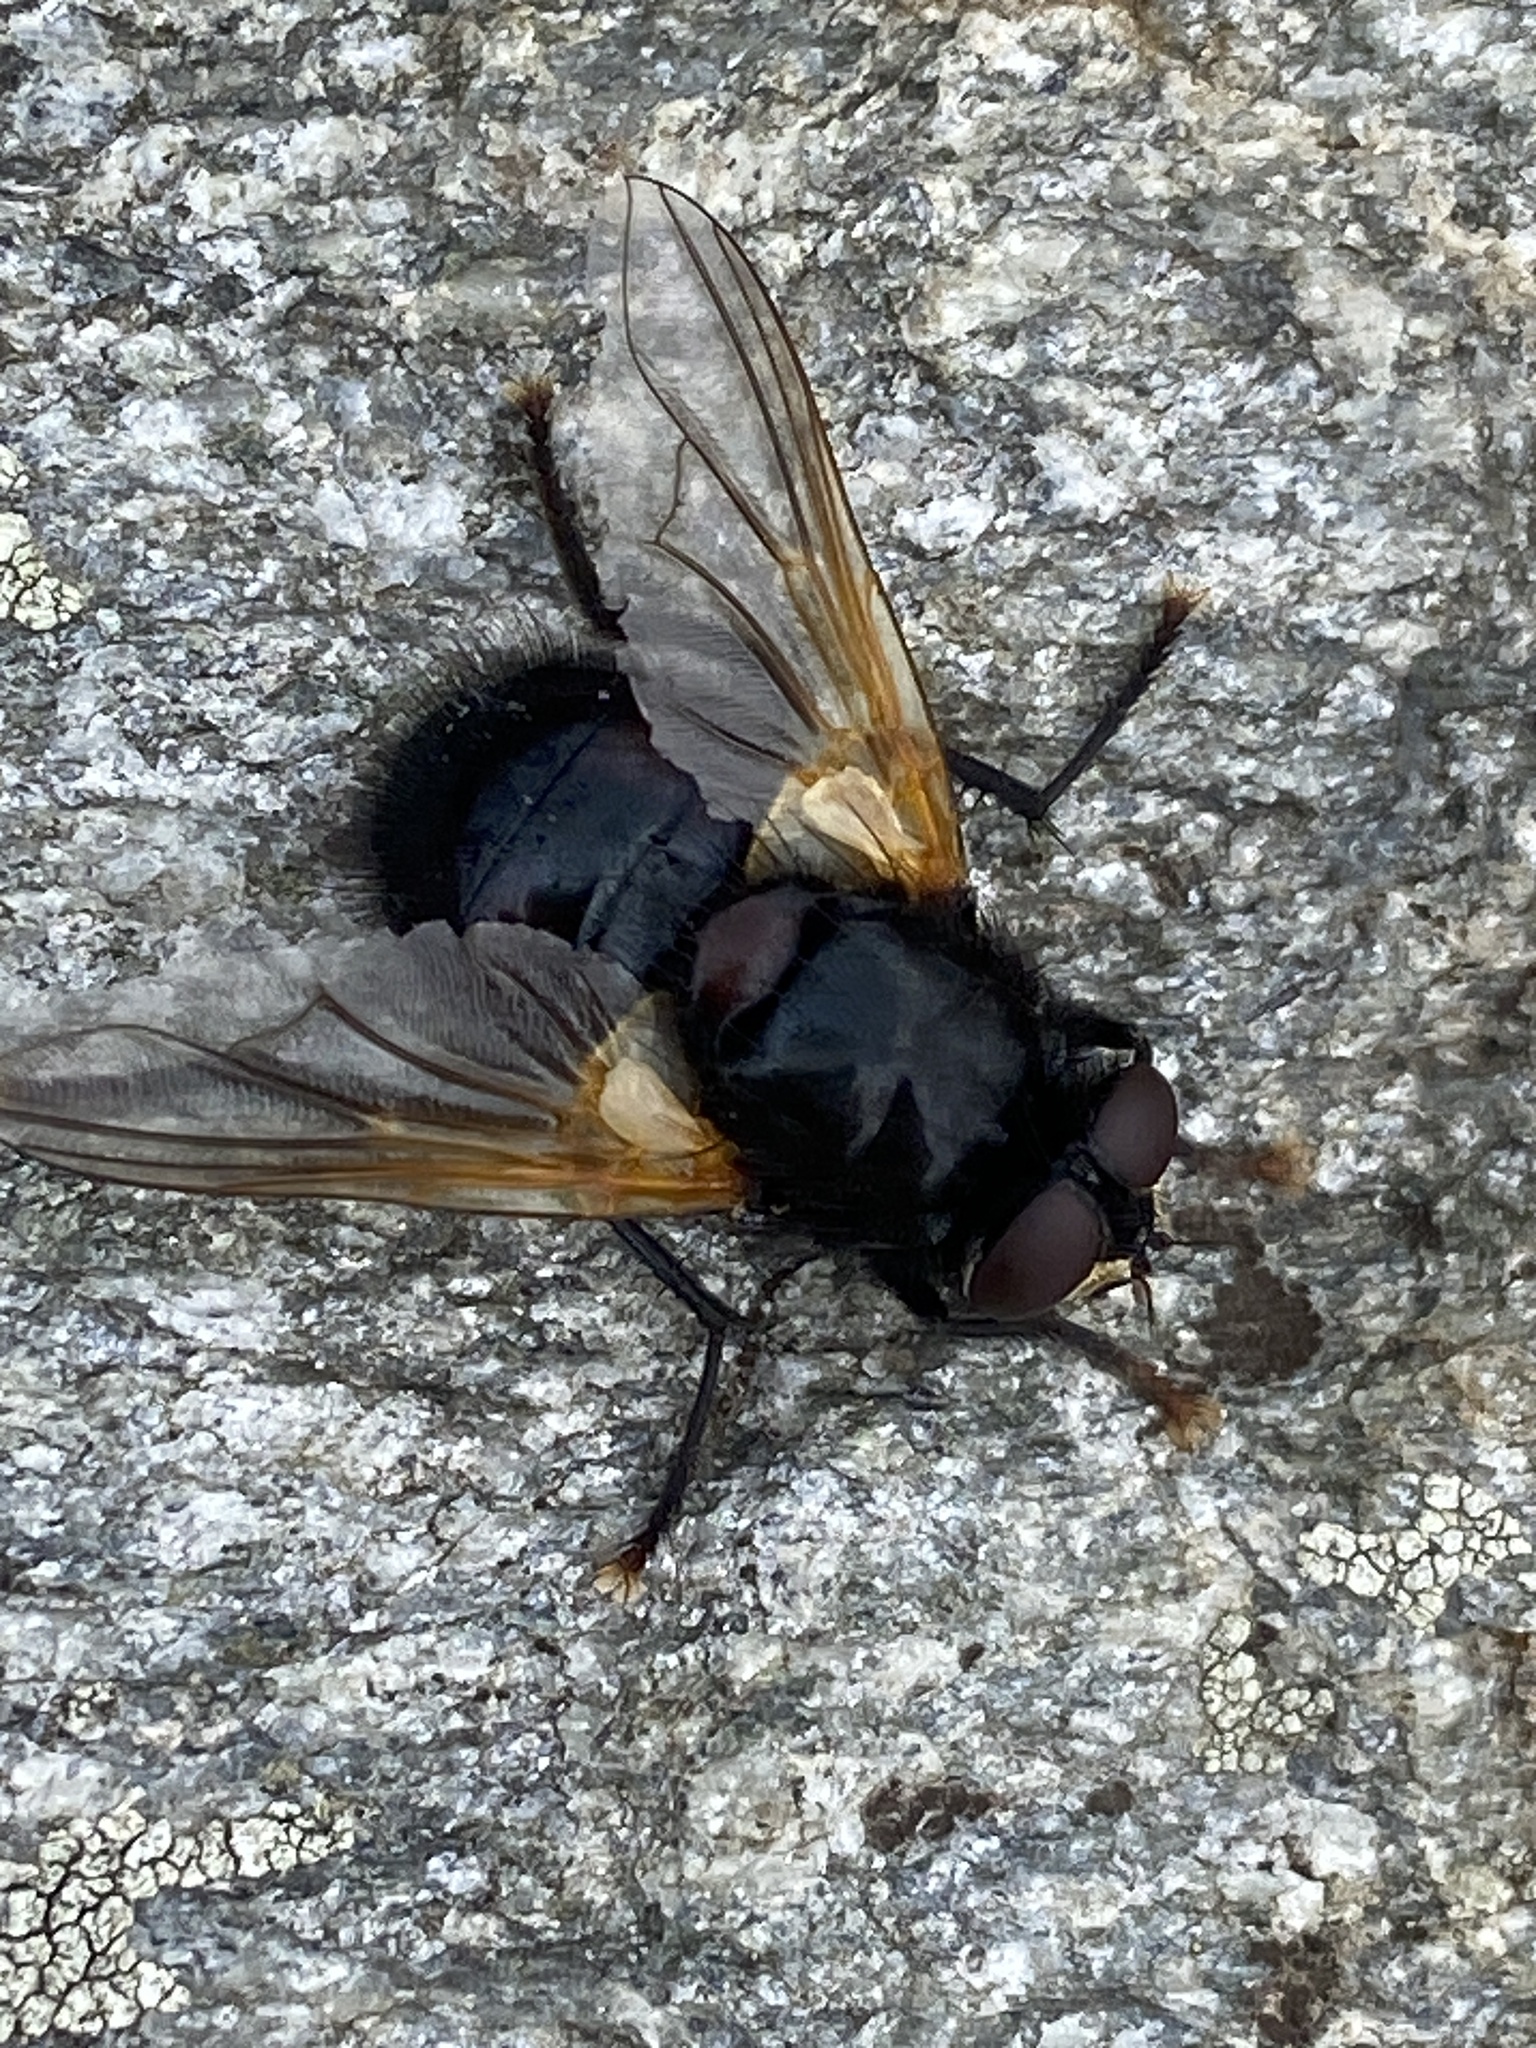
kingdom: Animalia
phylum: Arthropoda
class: Insecta
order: Diptera
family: Muscidae
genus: Mesembrina
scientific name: Mesembrina meridiana
